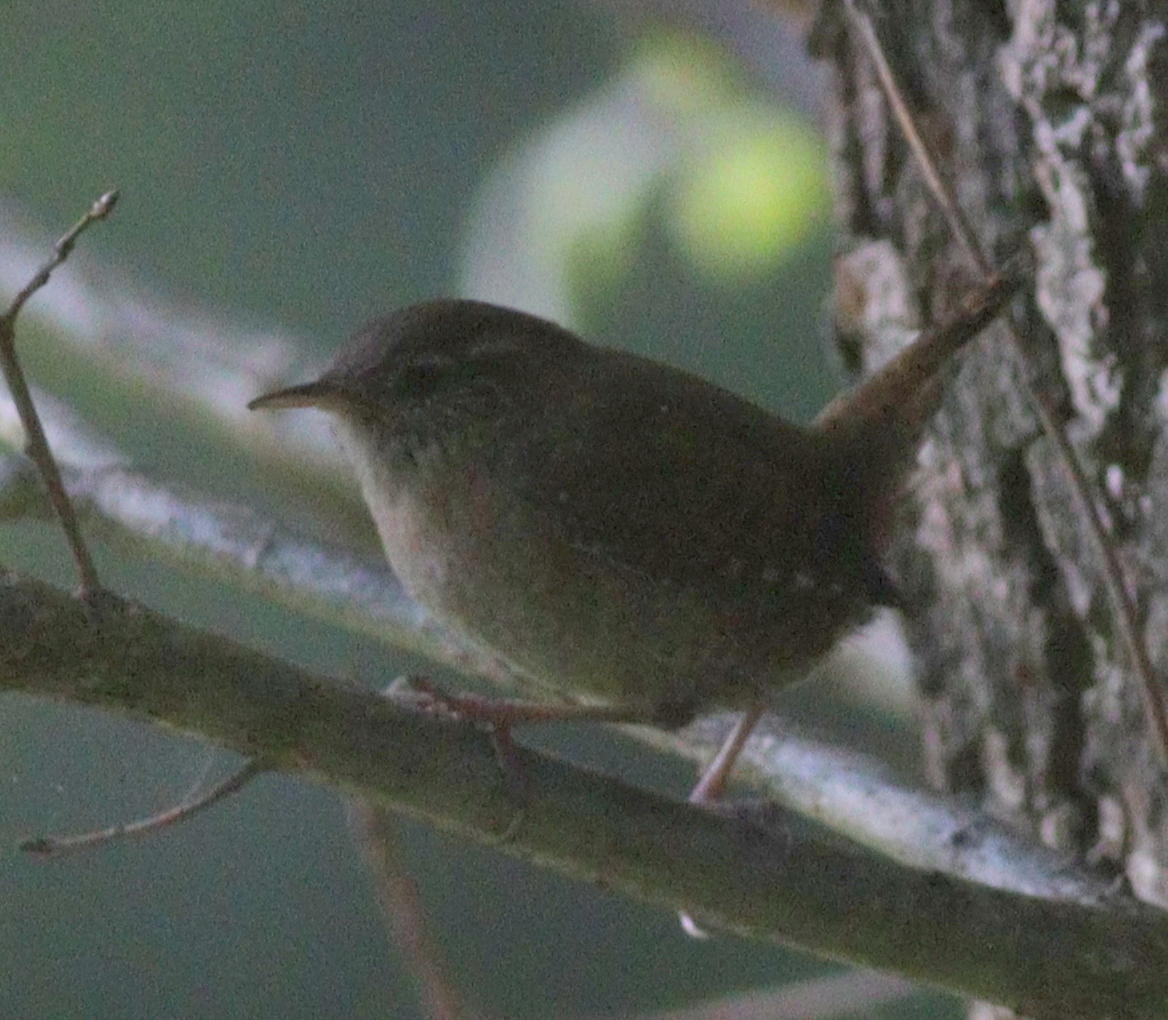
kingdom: Animalia
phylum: Chordata
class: Aves
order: Passeriformes
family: Troglodytidae
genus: Troglodytes
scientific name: Troglodytes troglodytes
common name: Eurasian wren
